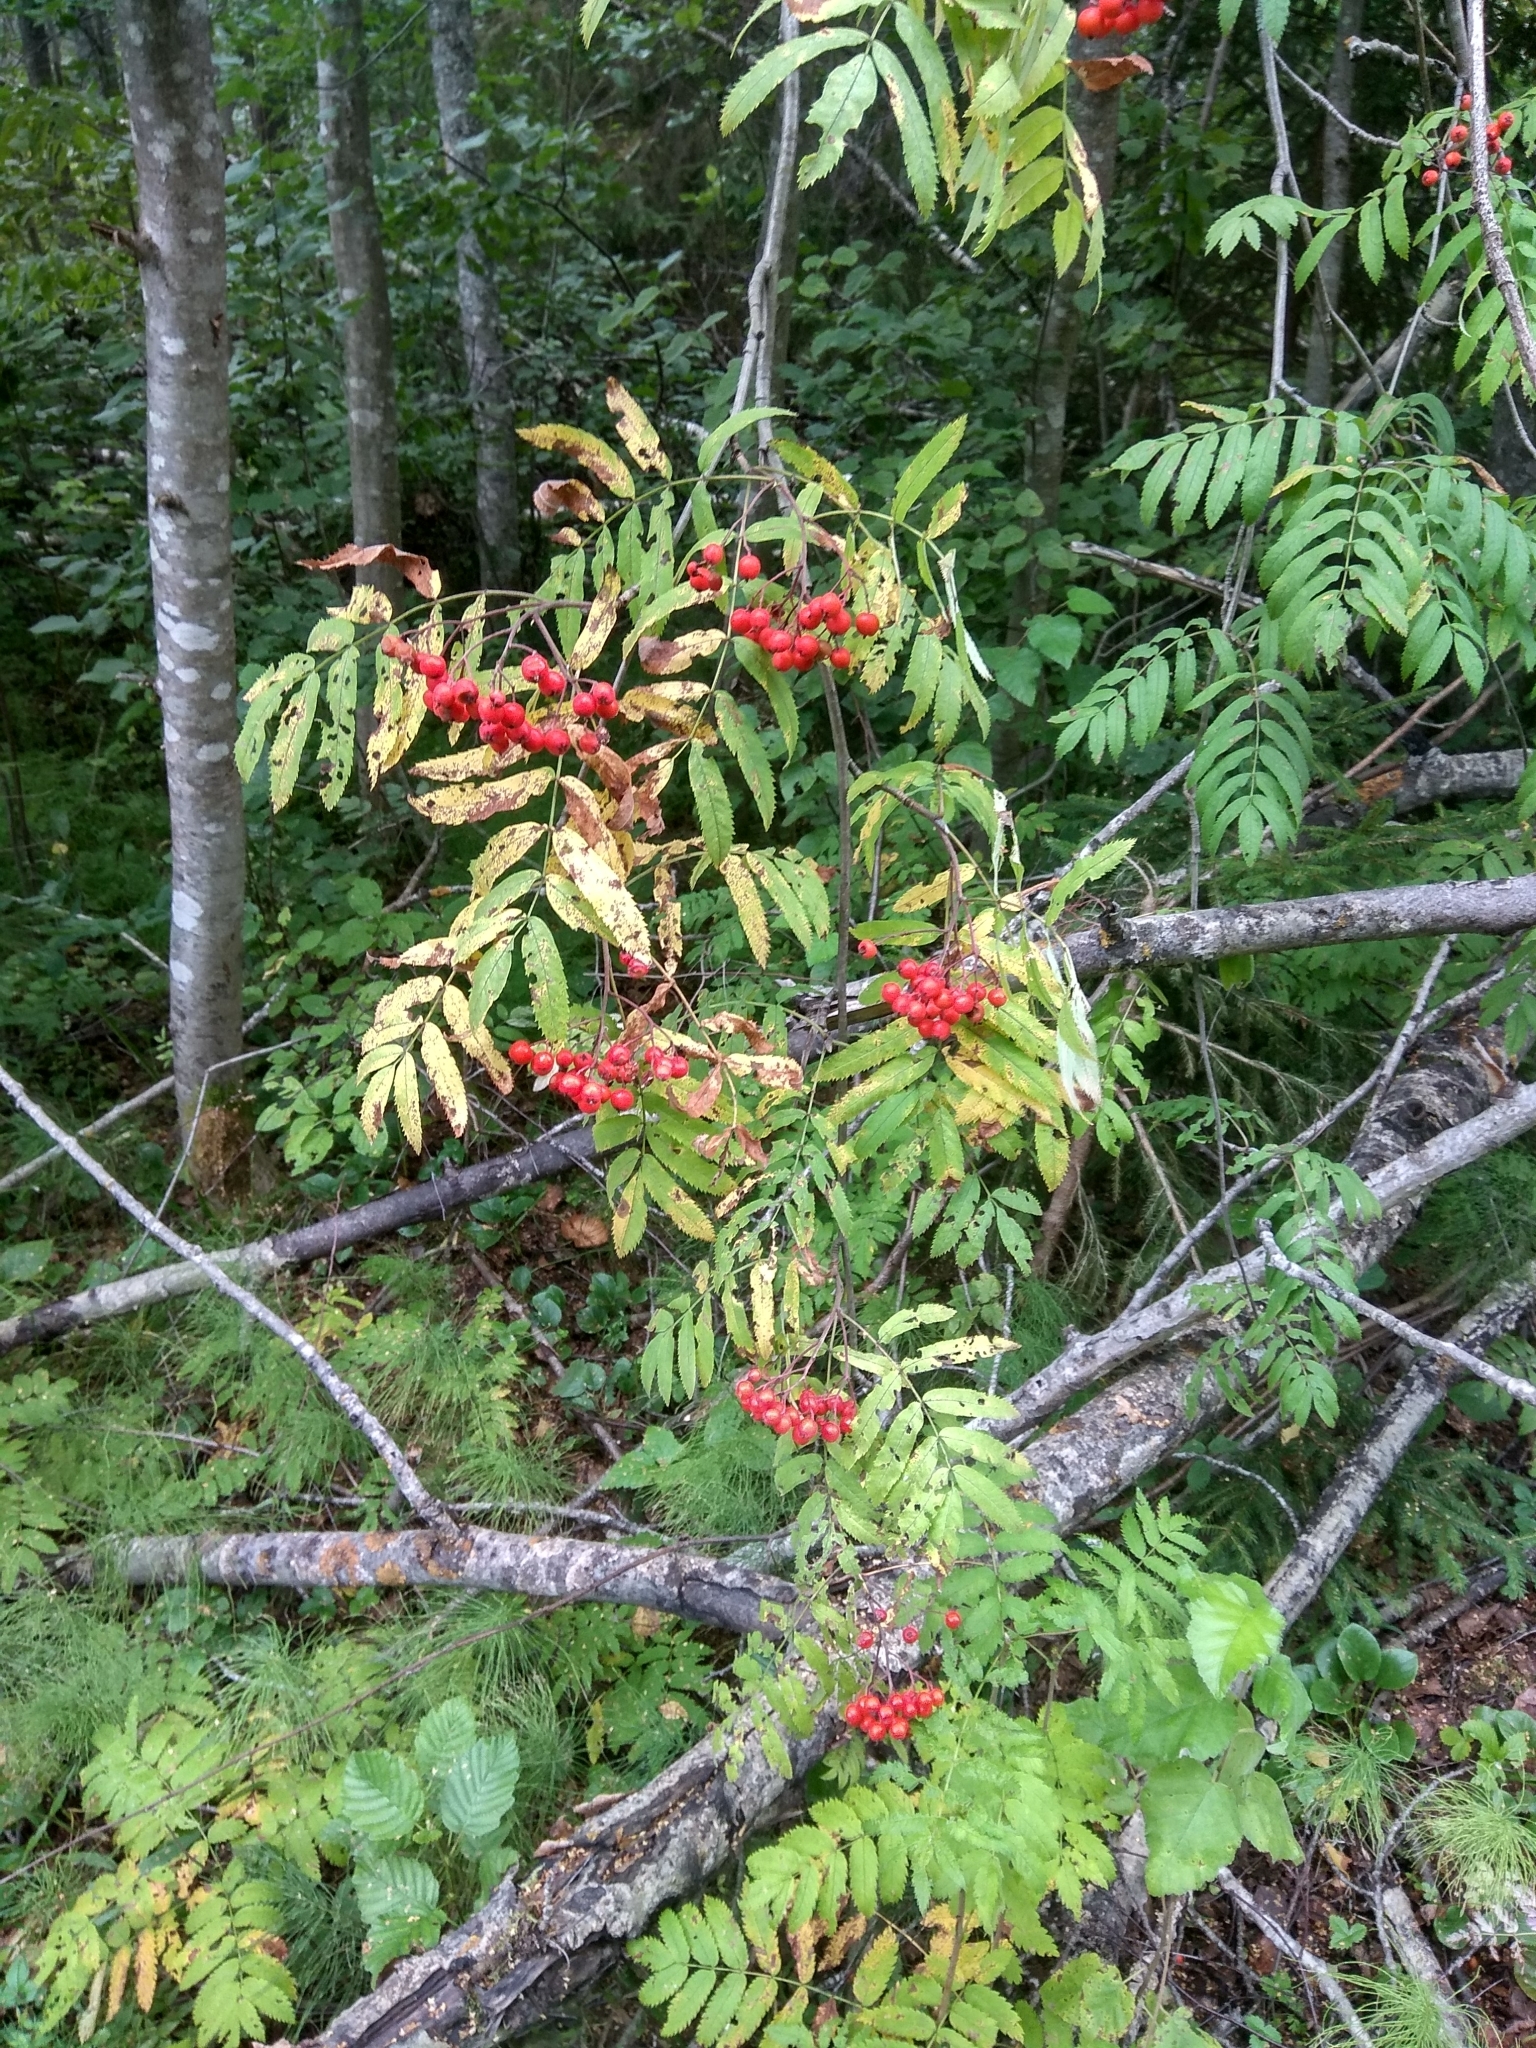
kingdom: Plantae
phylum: Tracheophyta
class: Magnoliopsida
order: Rosales
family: Rosaceae
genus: Sorbus
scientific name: Sorbus aucuparia
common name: Rowan
